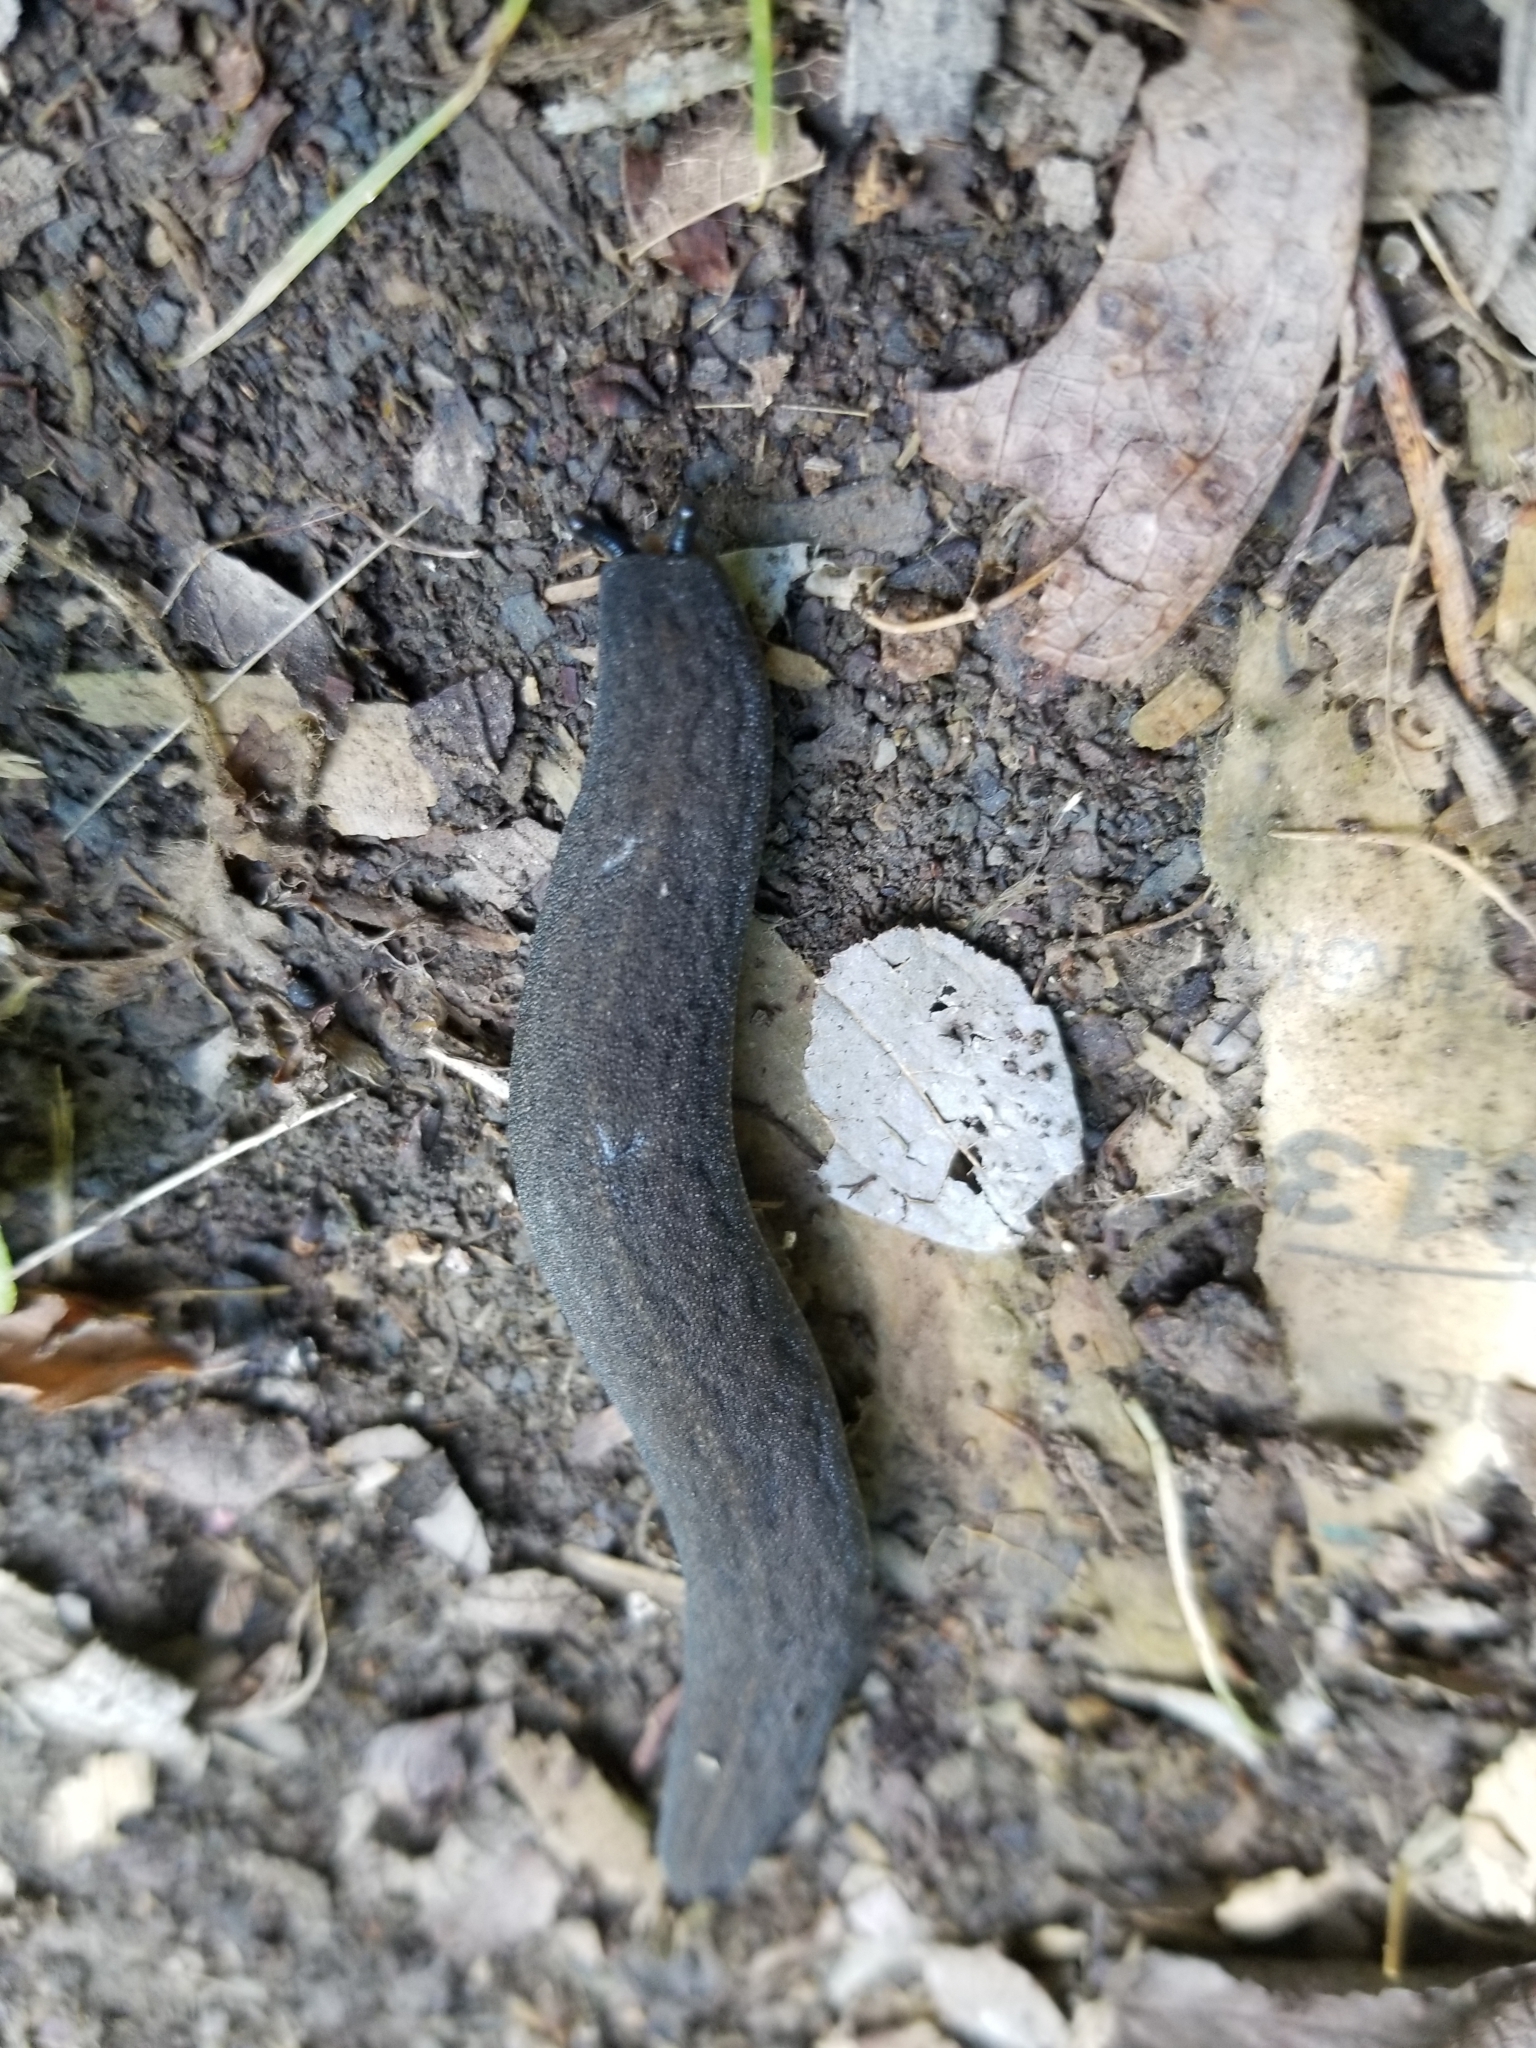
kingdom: Animalia
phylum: Mollusca
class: Gastropoda
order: Systellommatophora
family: Veronicellidae
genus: Belocaulus
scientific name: Belocaulus angustipes
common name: Black velvet leatherleaf slug
